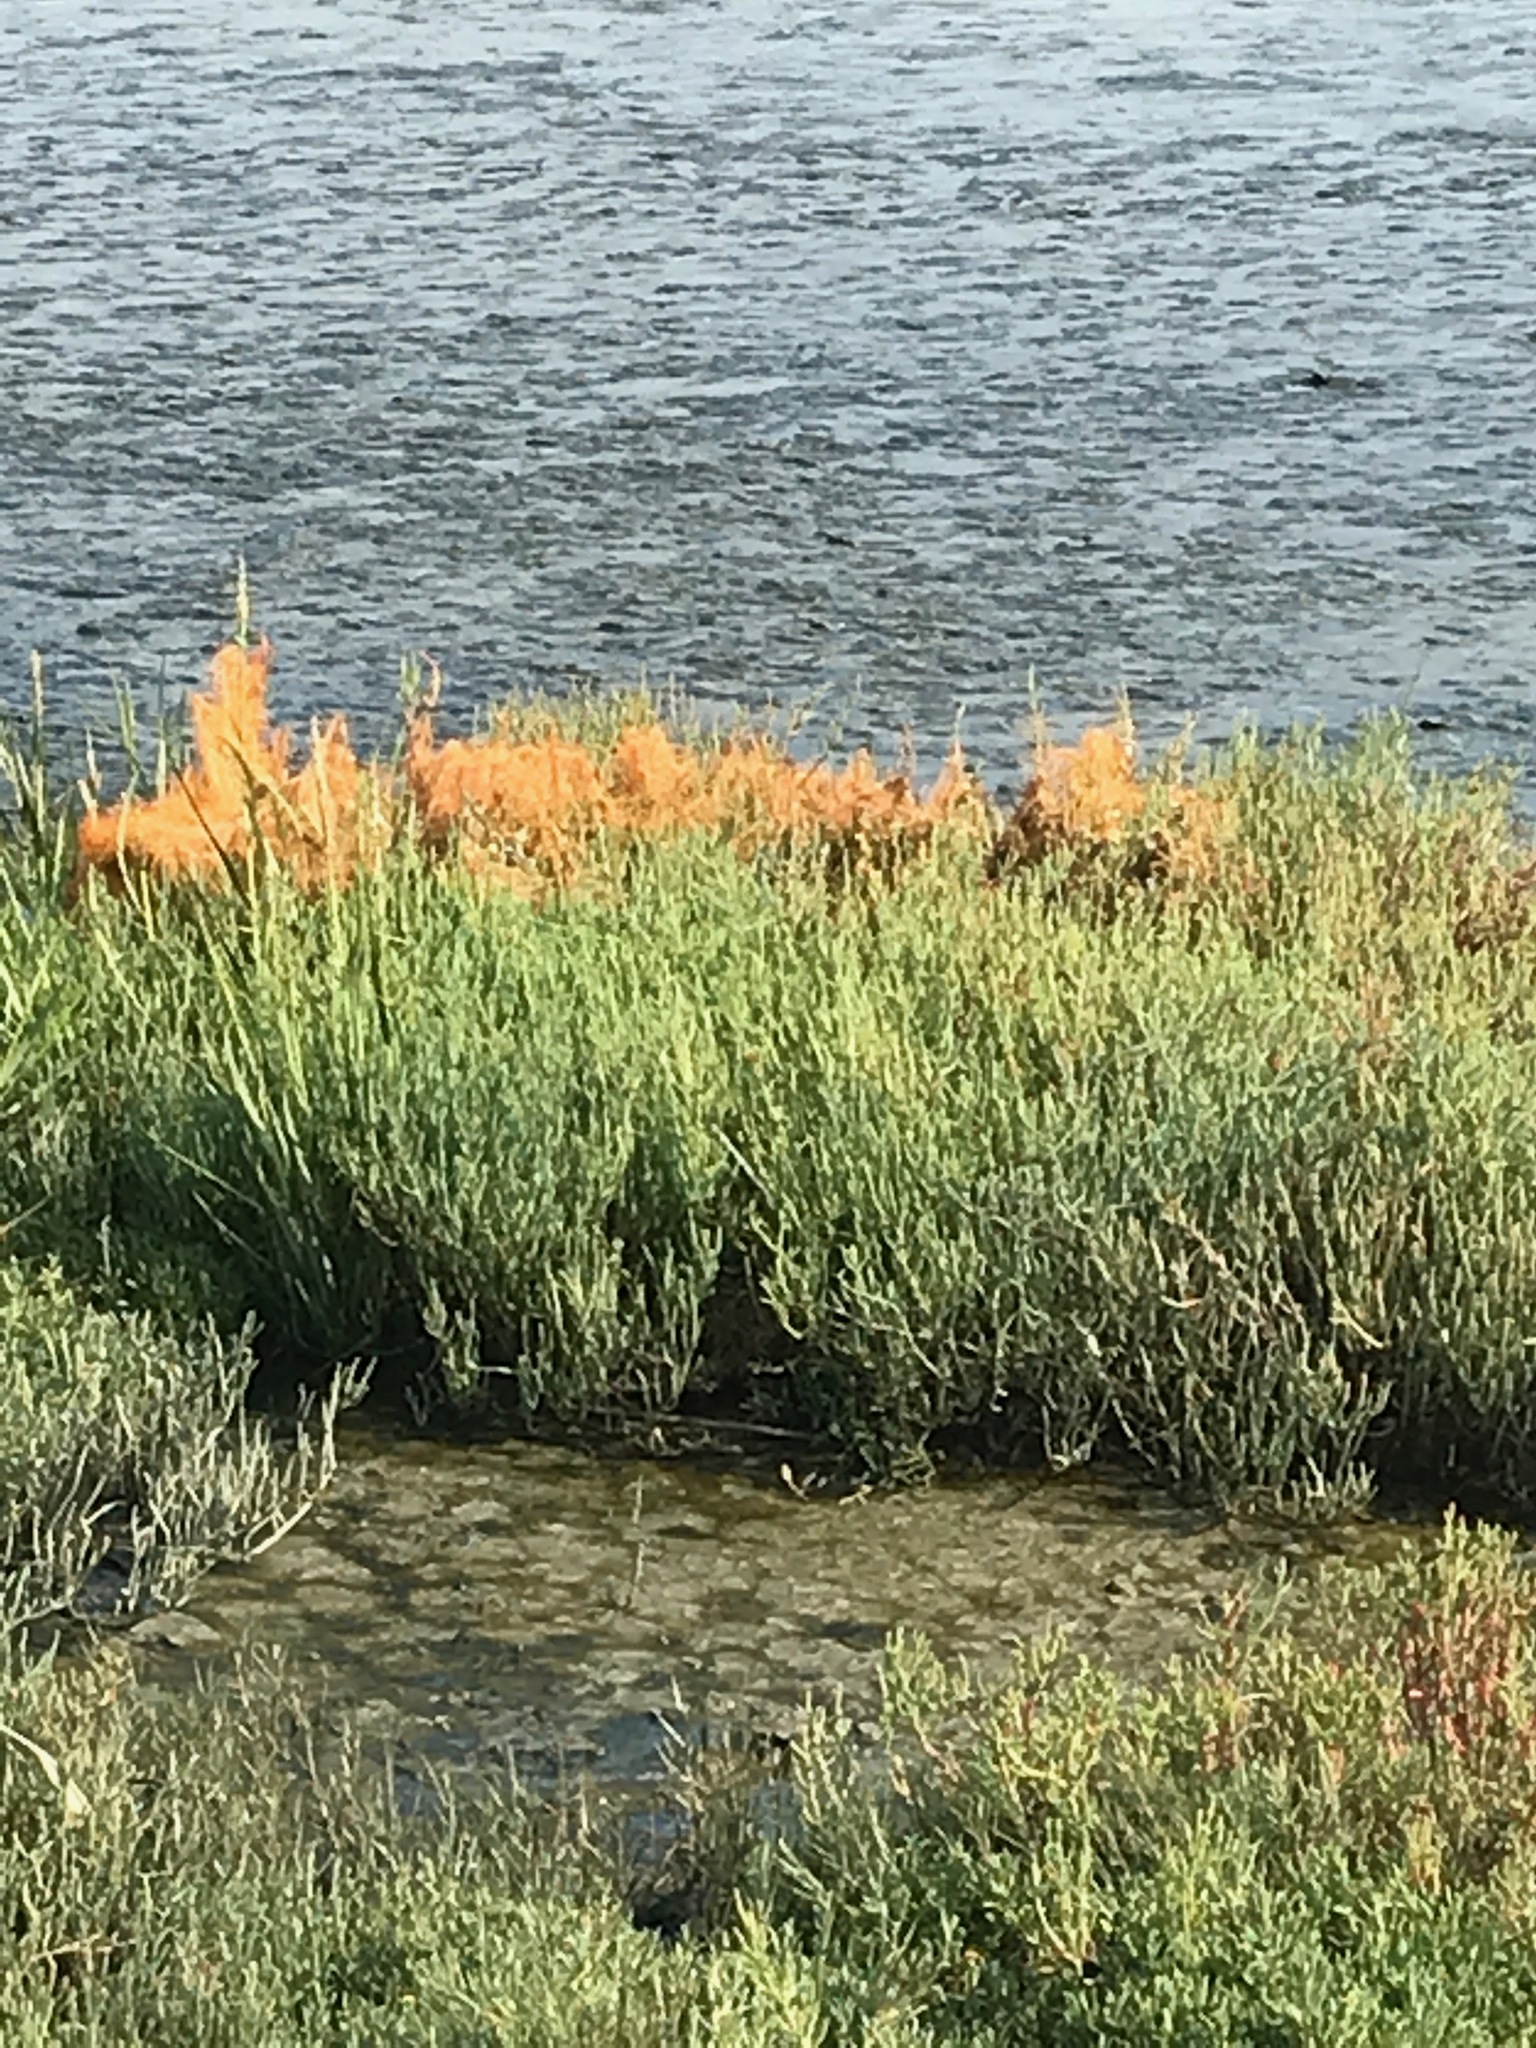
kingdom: Plantae
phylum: Tracheophyta
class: Magnoliopsida
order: Solanales
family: Convolvulaceae
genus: Cuscuta
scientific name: Cuscuta pacifica
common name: Large saltmarsh dodder
